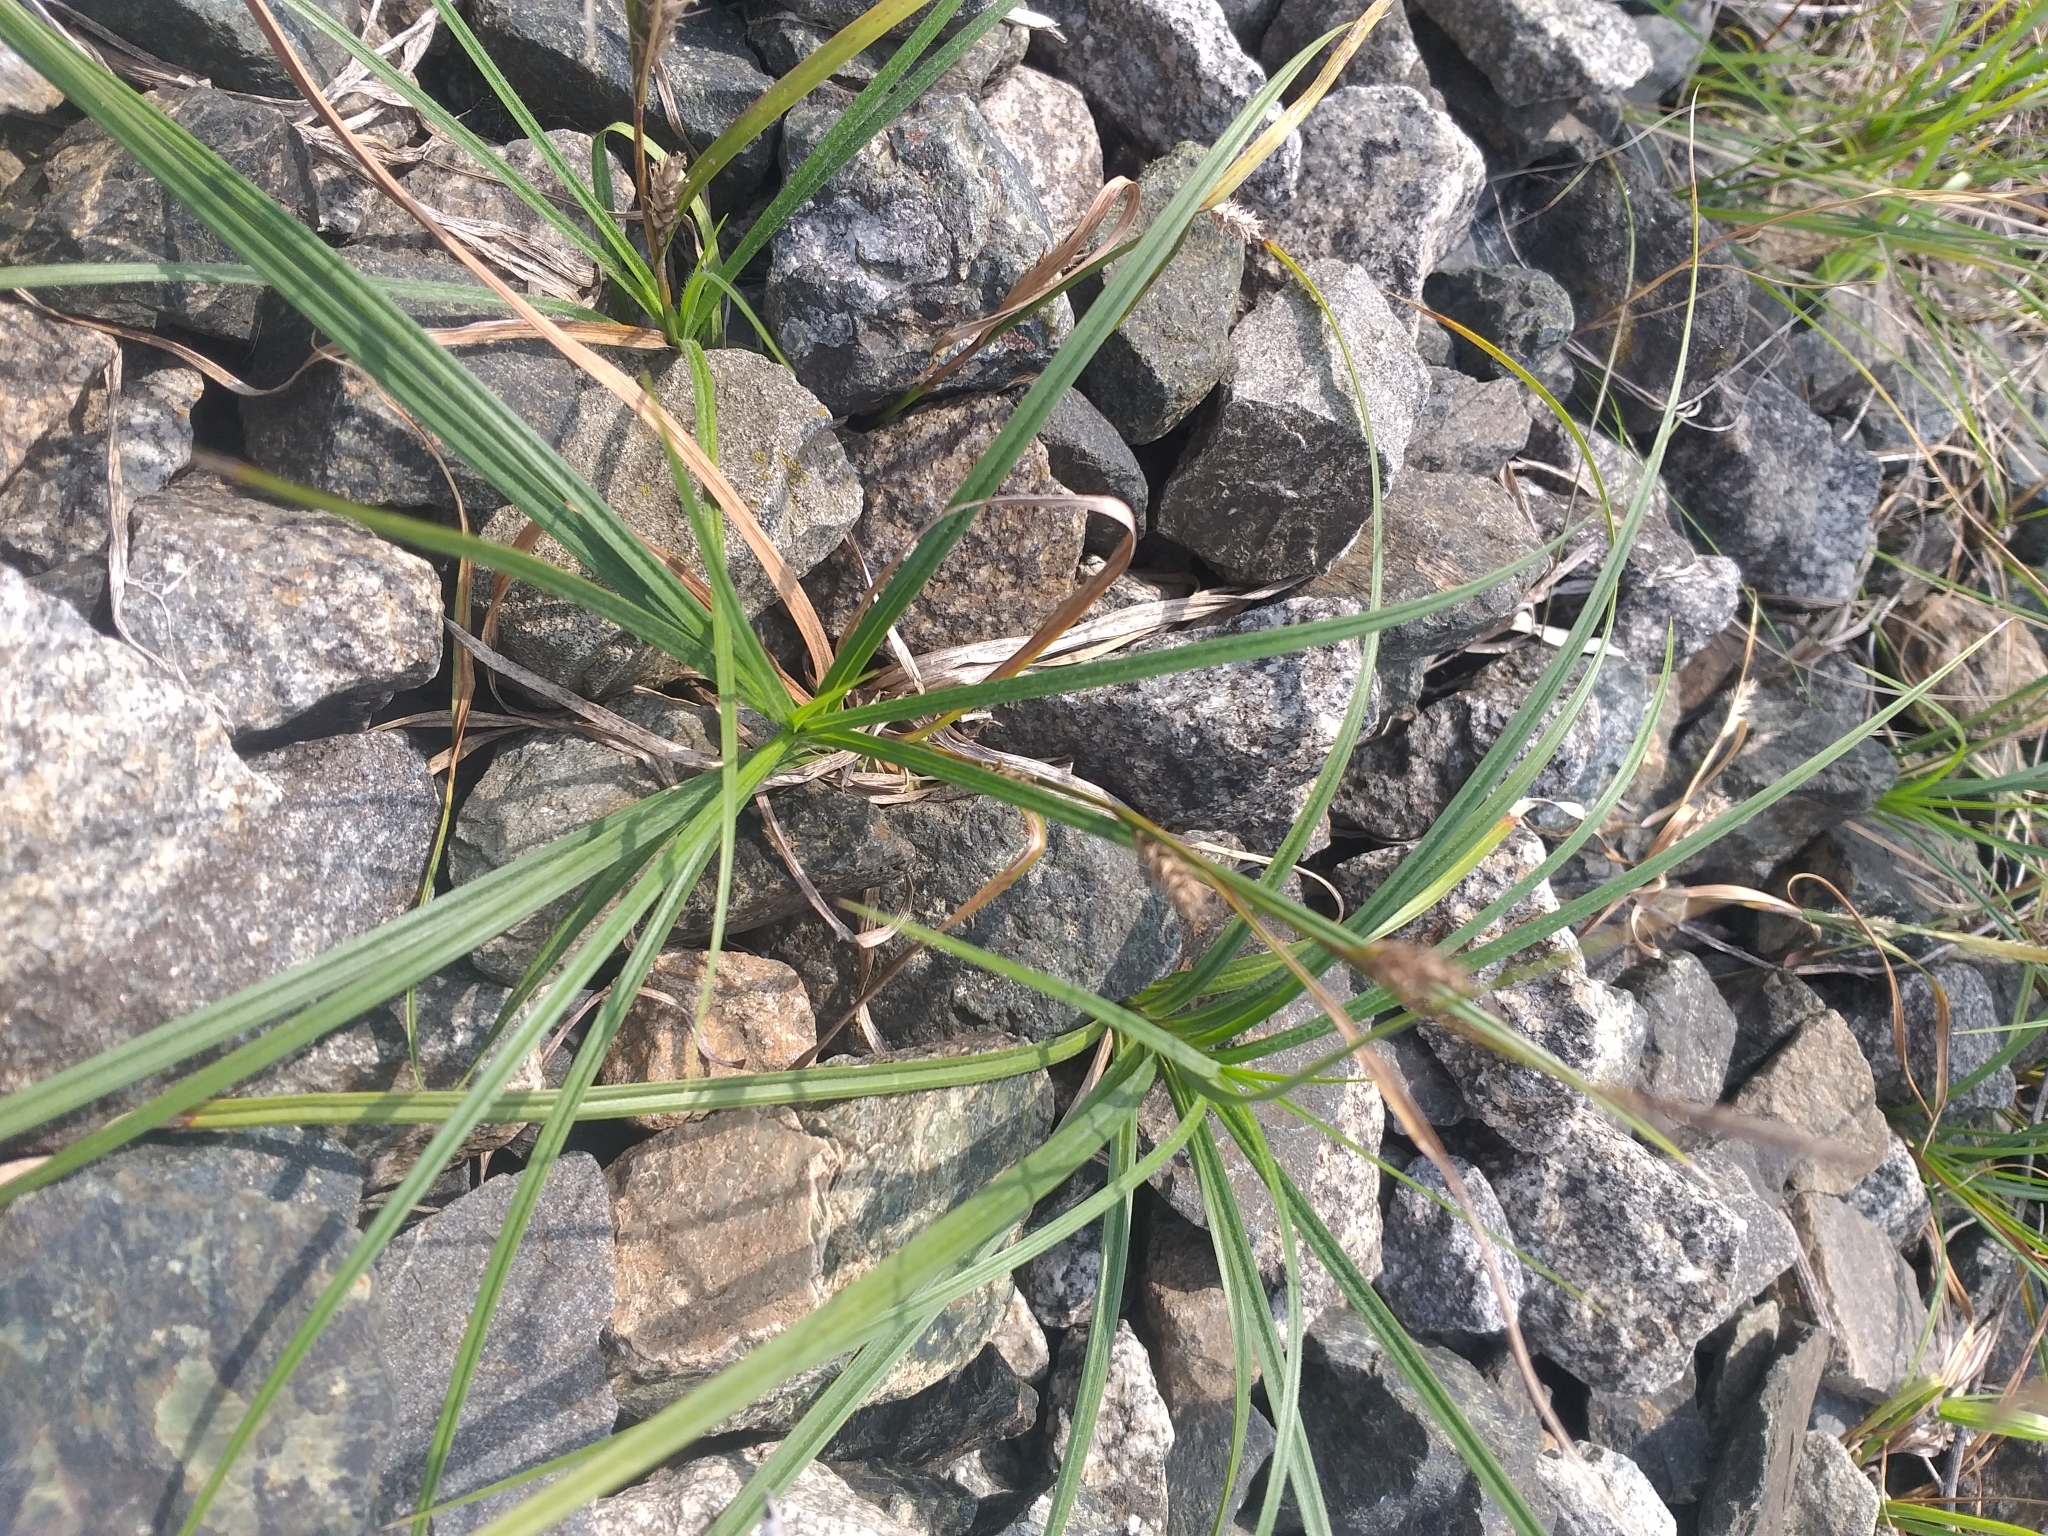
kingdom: Plantae
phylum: Tracheophyta
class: Liliopsida
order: Poales
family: Cyperaceae
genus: Carex
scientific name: Carex hirta
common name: Hairy sedge
